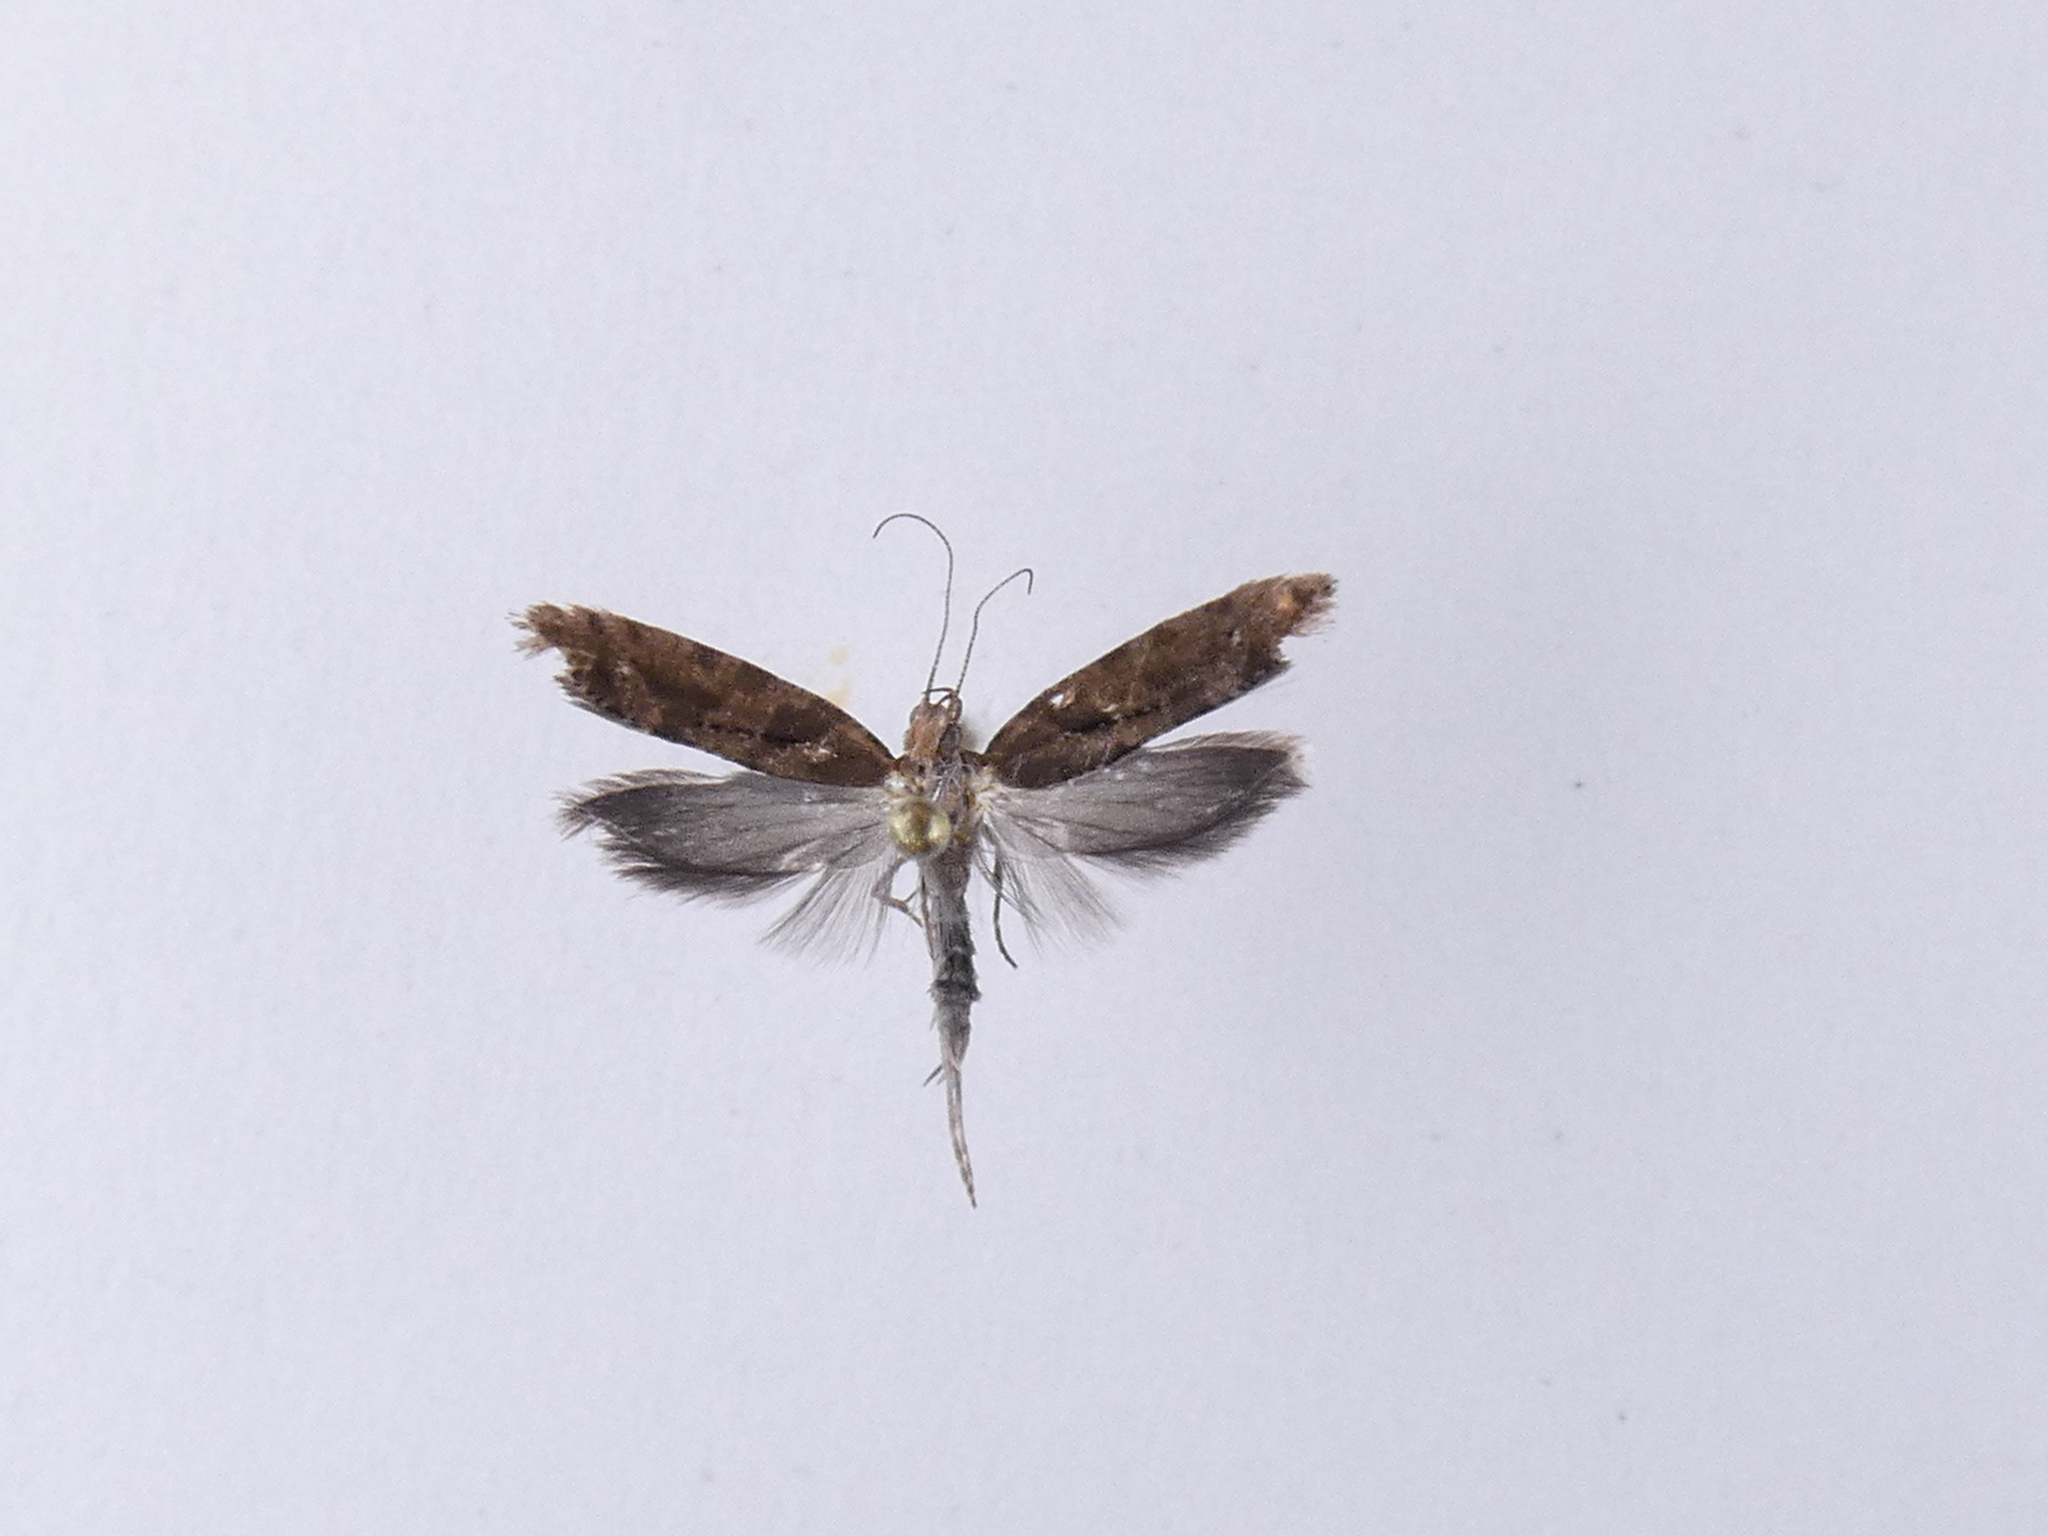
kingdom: Animalia
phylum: Arthropoda
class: Insecta
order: Lepidoptera
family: Glyphipterigidae
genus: Chrysorthenches
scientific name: Chrysorthenches porphyritis
